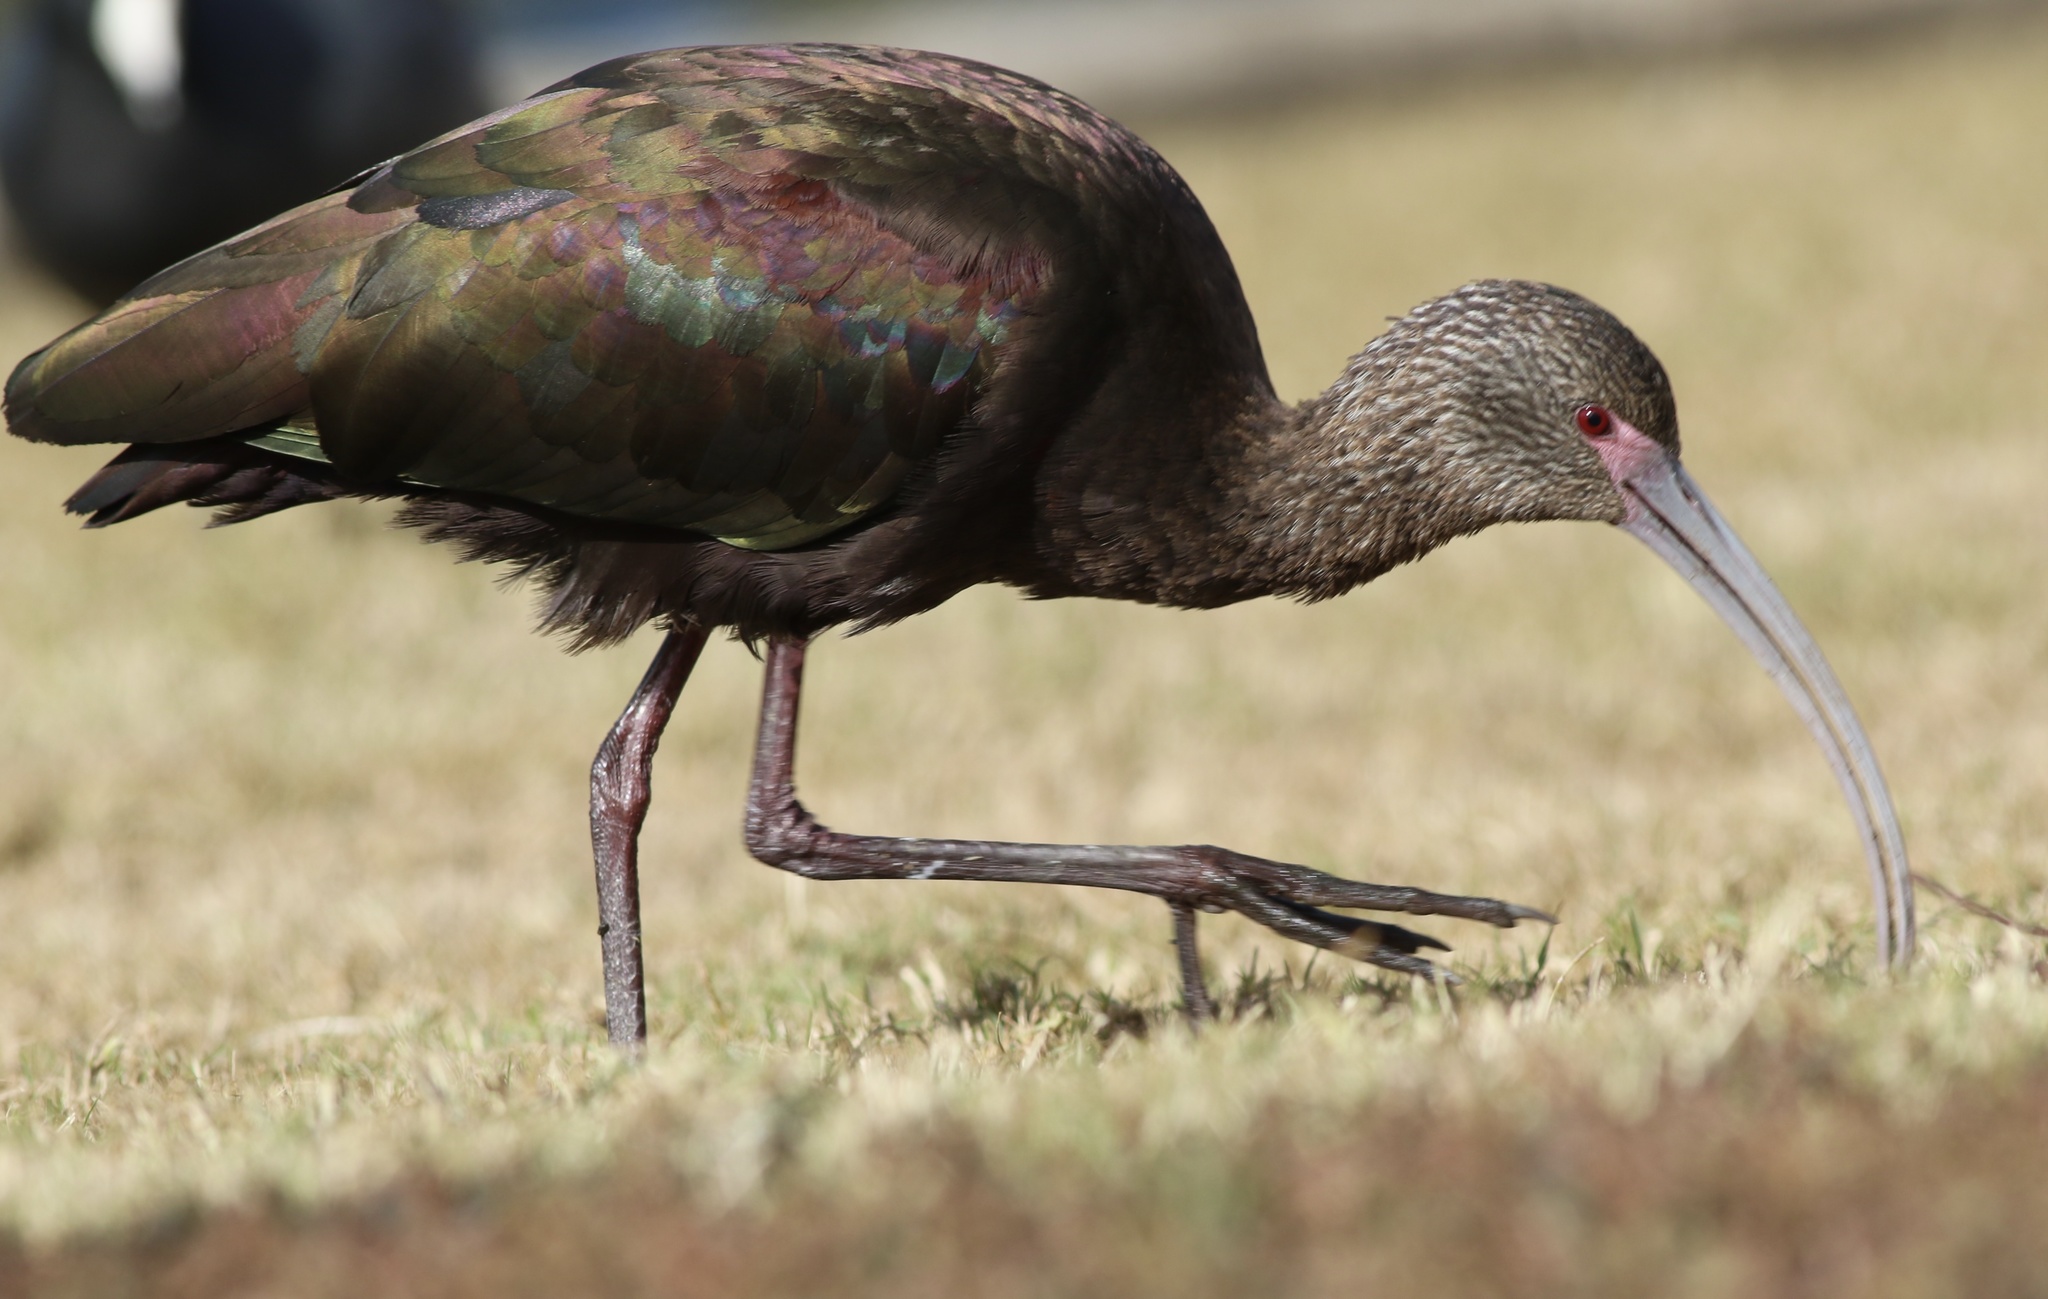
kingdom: Animalia
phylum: Chordata
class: Aves
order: Pelecaniformes
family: Threskiornithidae
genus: Plegadis
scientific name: Plegadis chihi
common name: White-faced ibis
